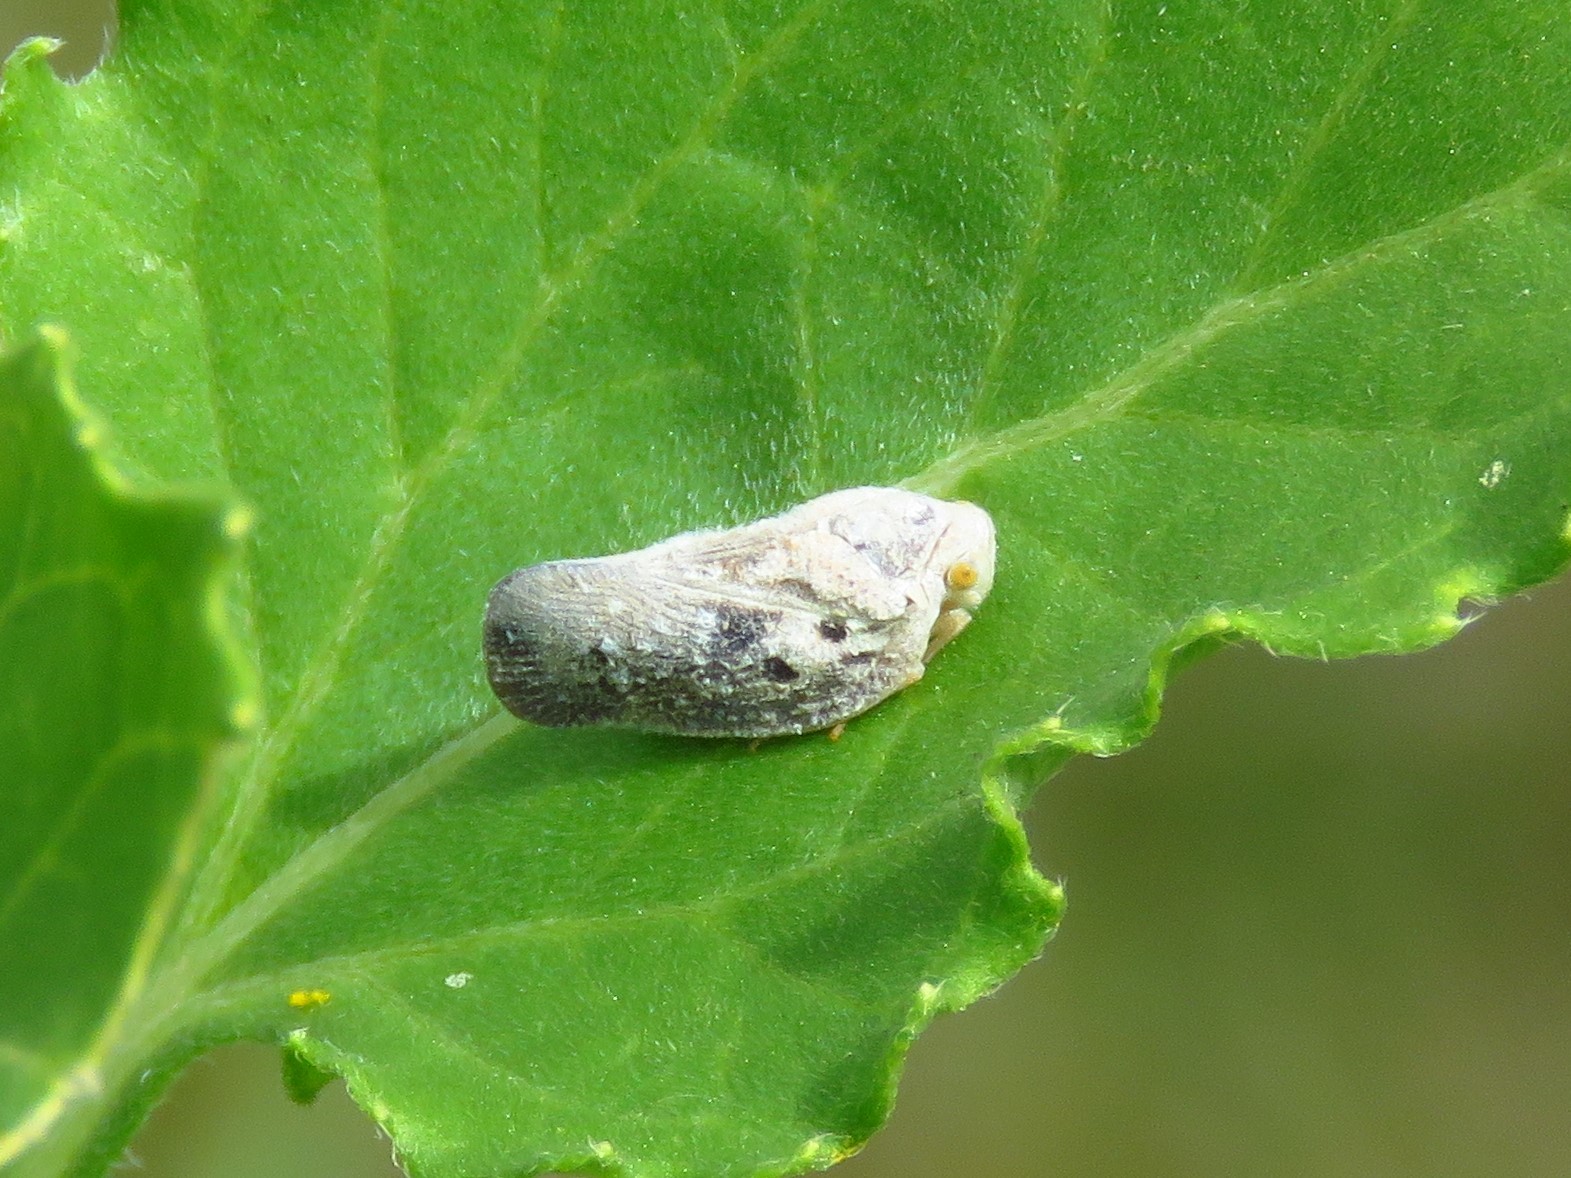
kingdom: Animalia
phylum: Arthropoda
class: Insecta
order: Hemiptera
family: Flatidae
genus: Metcalfa
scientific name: Metcalfa pruinosa
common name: Citrus flatid planthopper
